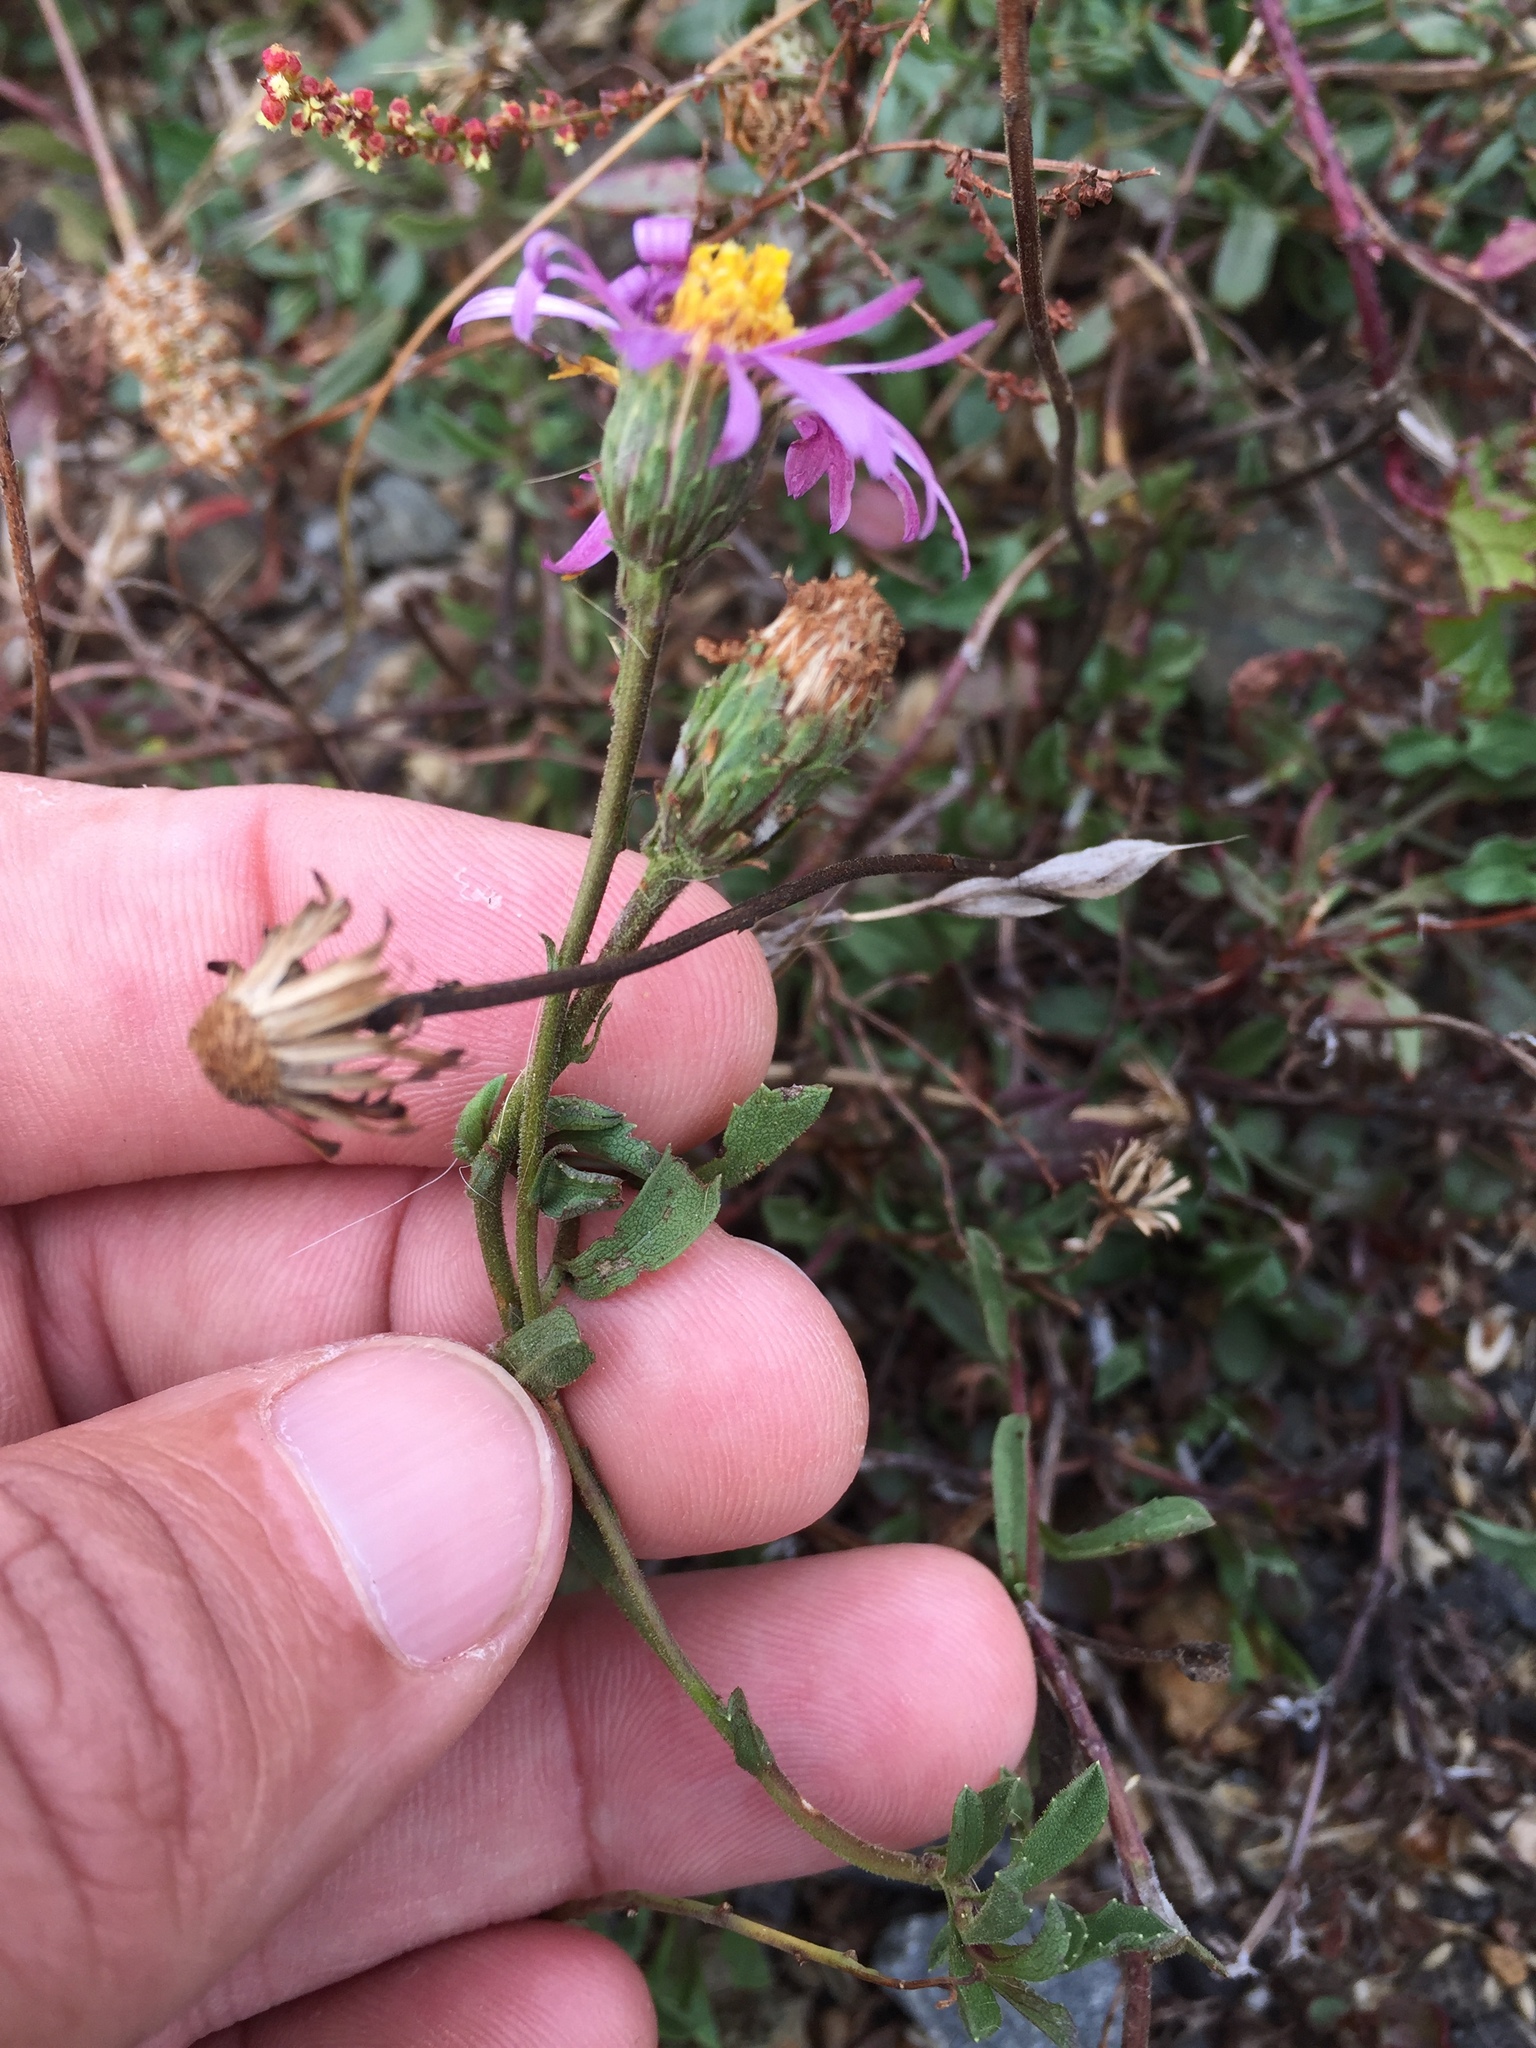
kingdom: Plantae
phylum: Tracheophyta
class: Magnoliopsida
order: Asterales
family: Asteraceae
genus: Corethrogyne
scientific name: Corethrogyne filaginifolia
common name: Sand-aster
